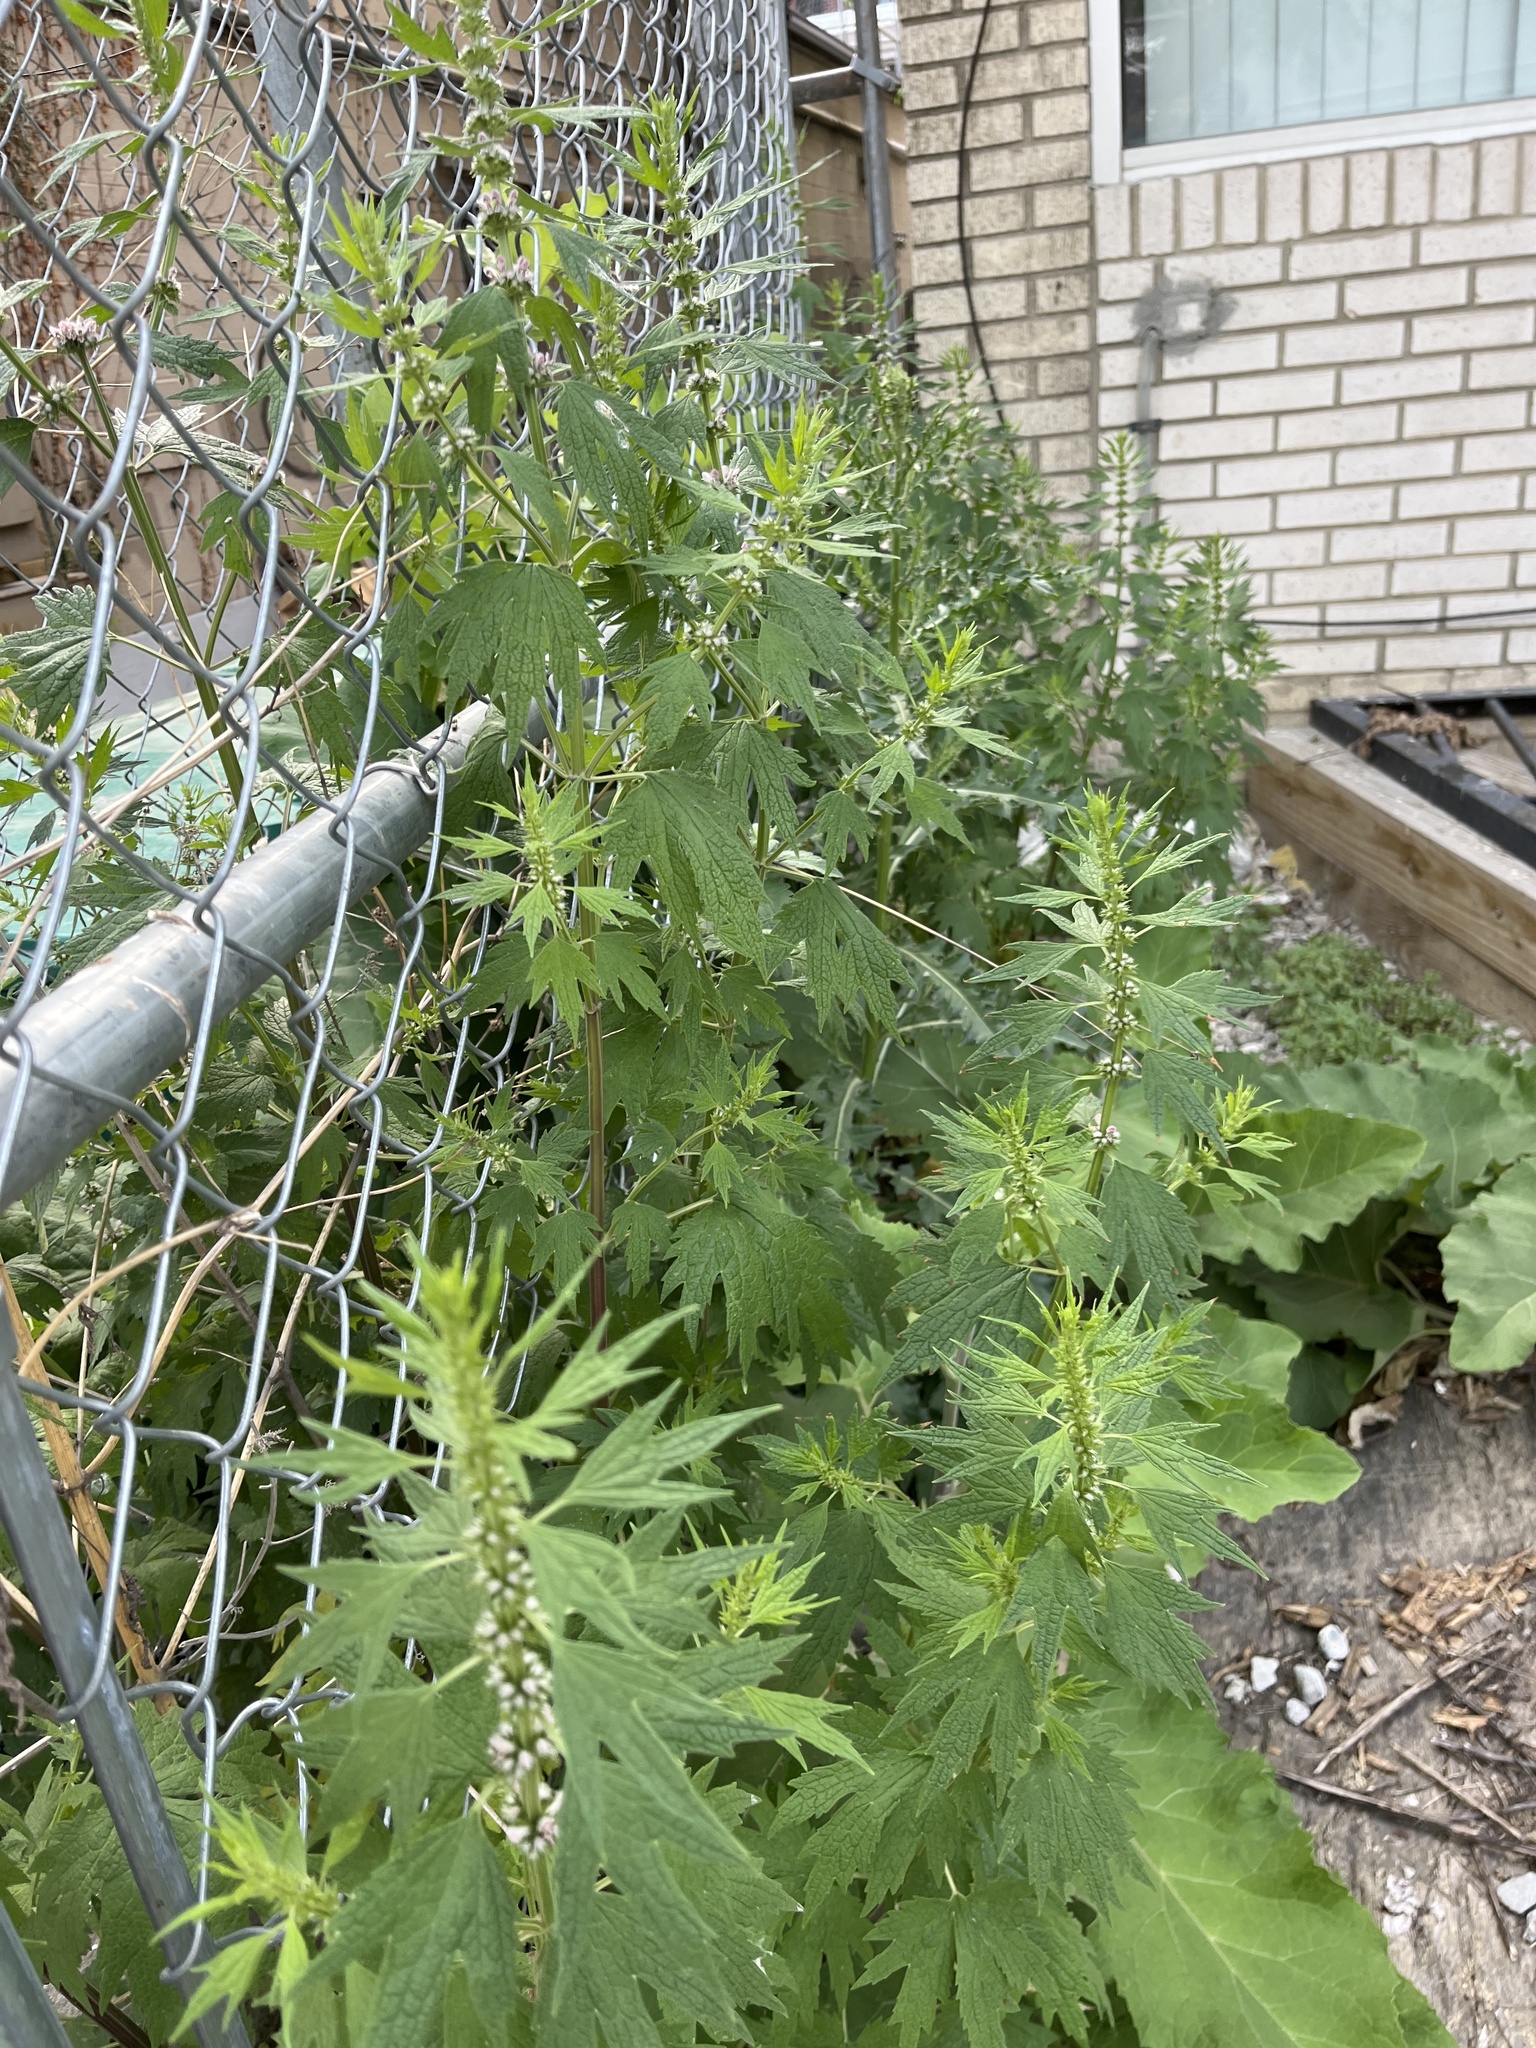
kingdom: Plantae
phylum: Tracheophyta
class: Magnoliopsida
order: Lamiales
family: Lamiaceae
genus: Leonurus
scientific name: Leonurus cardiaca
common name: Motherwort
